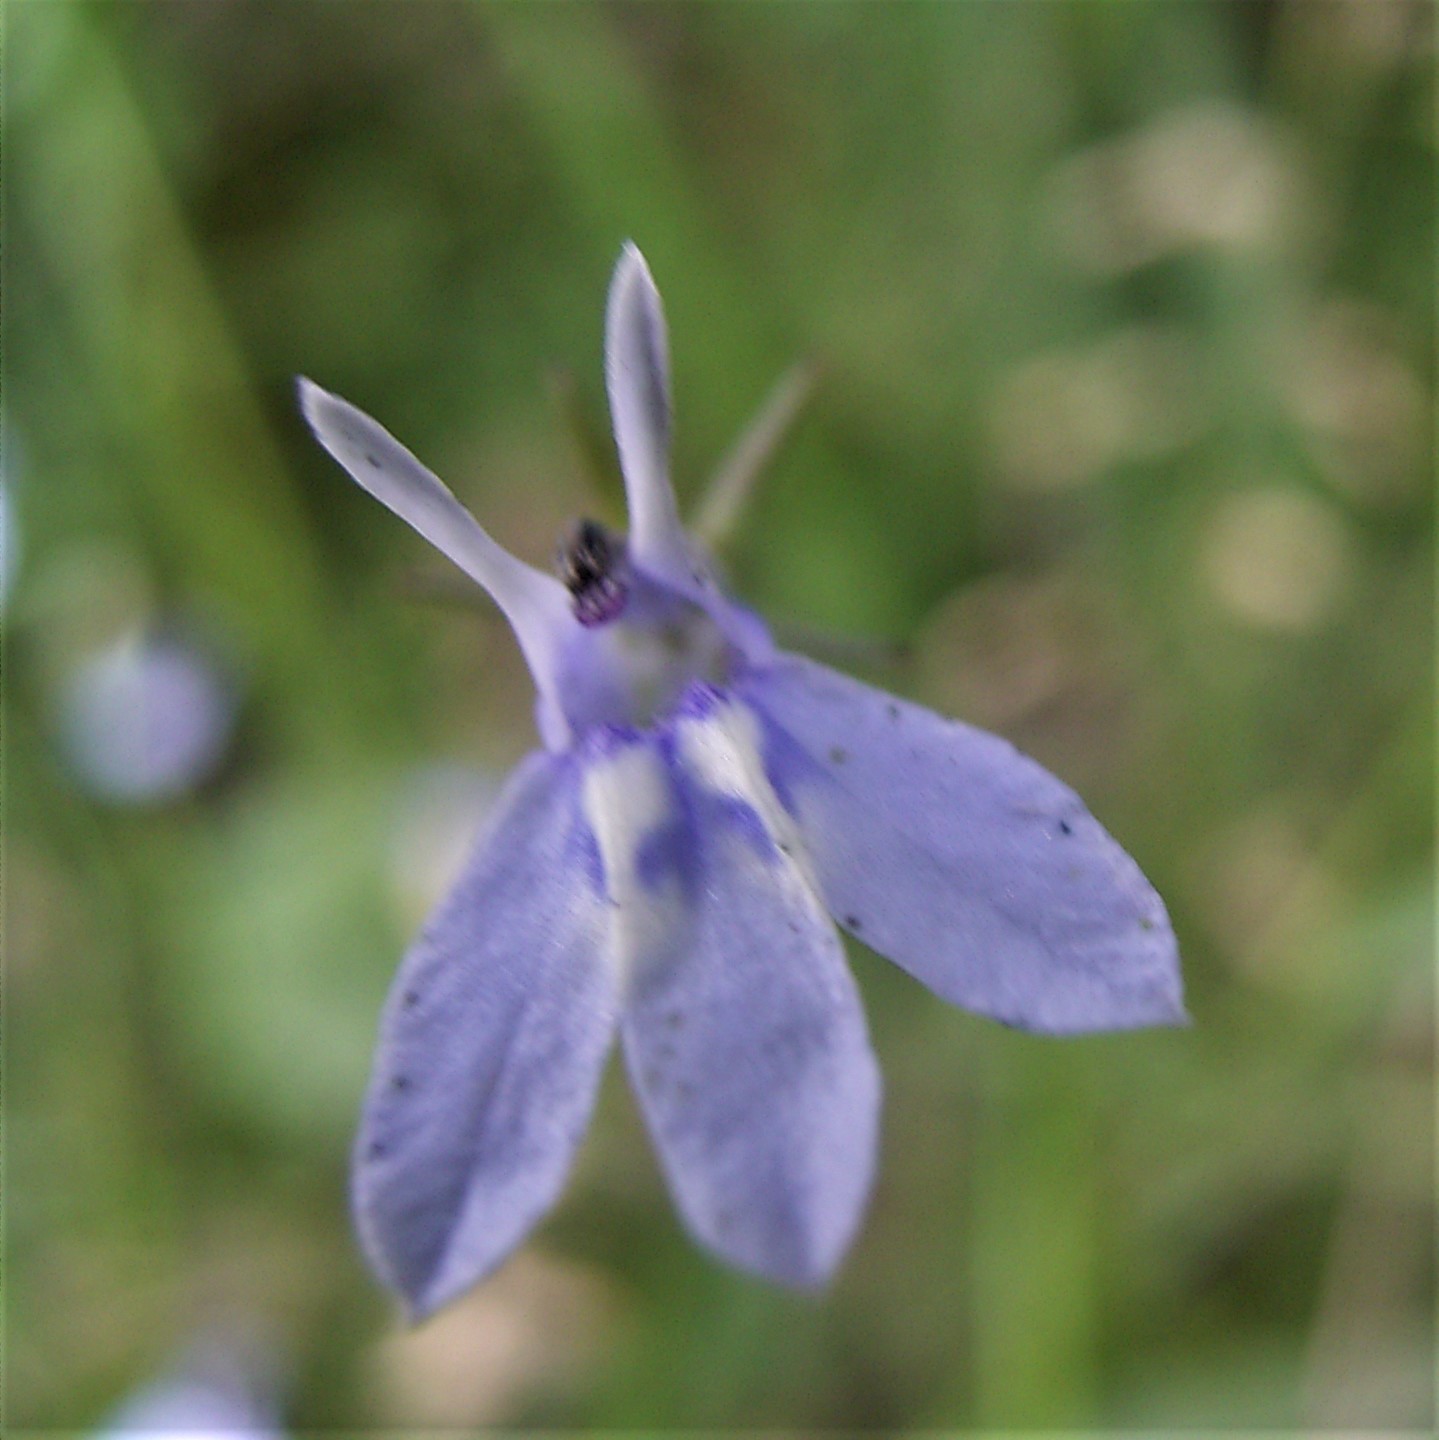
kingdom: Plantae
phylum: Tracheophyta
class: Magnoliopsida
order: Asterales
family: Campanulaceae
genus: Lobelia
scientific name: Lobelia flaccida
